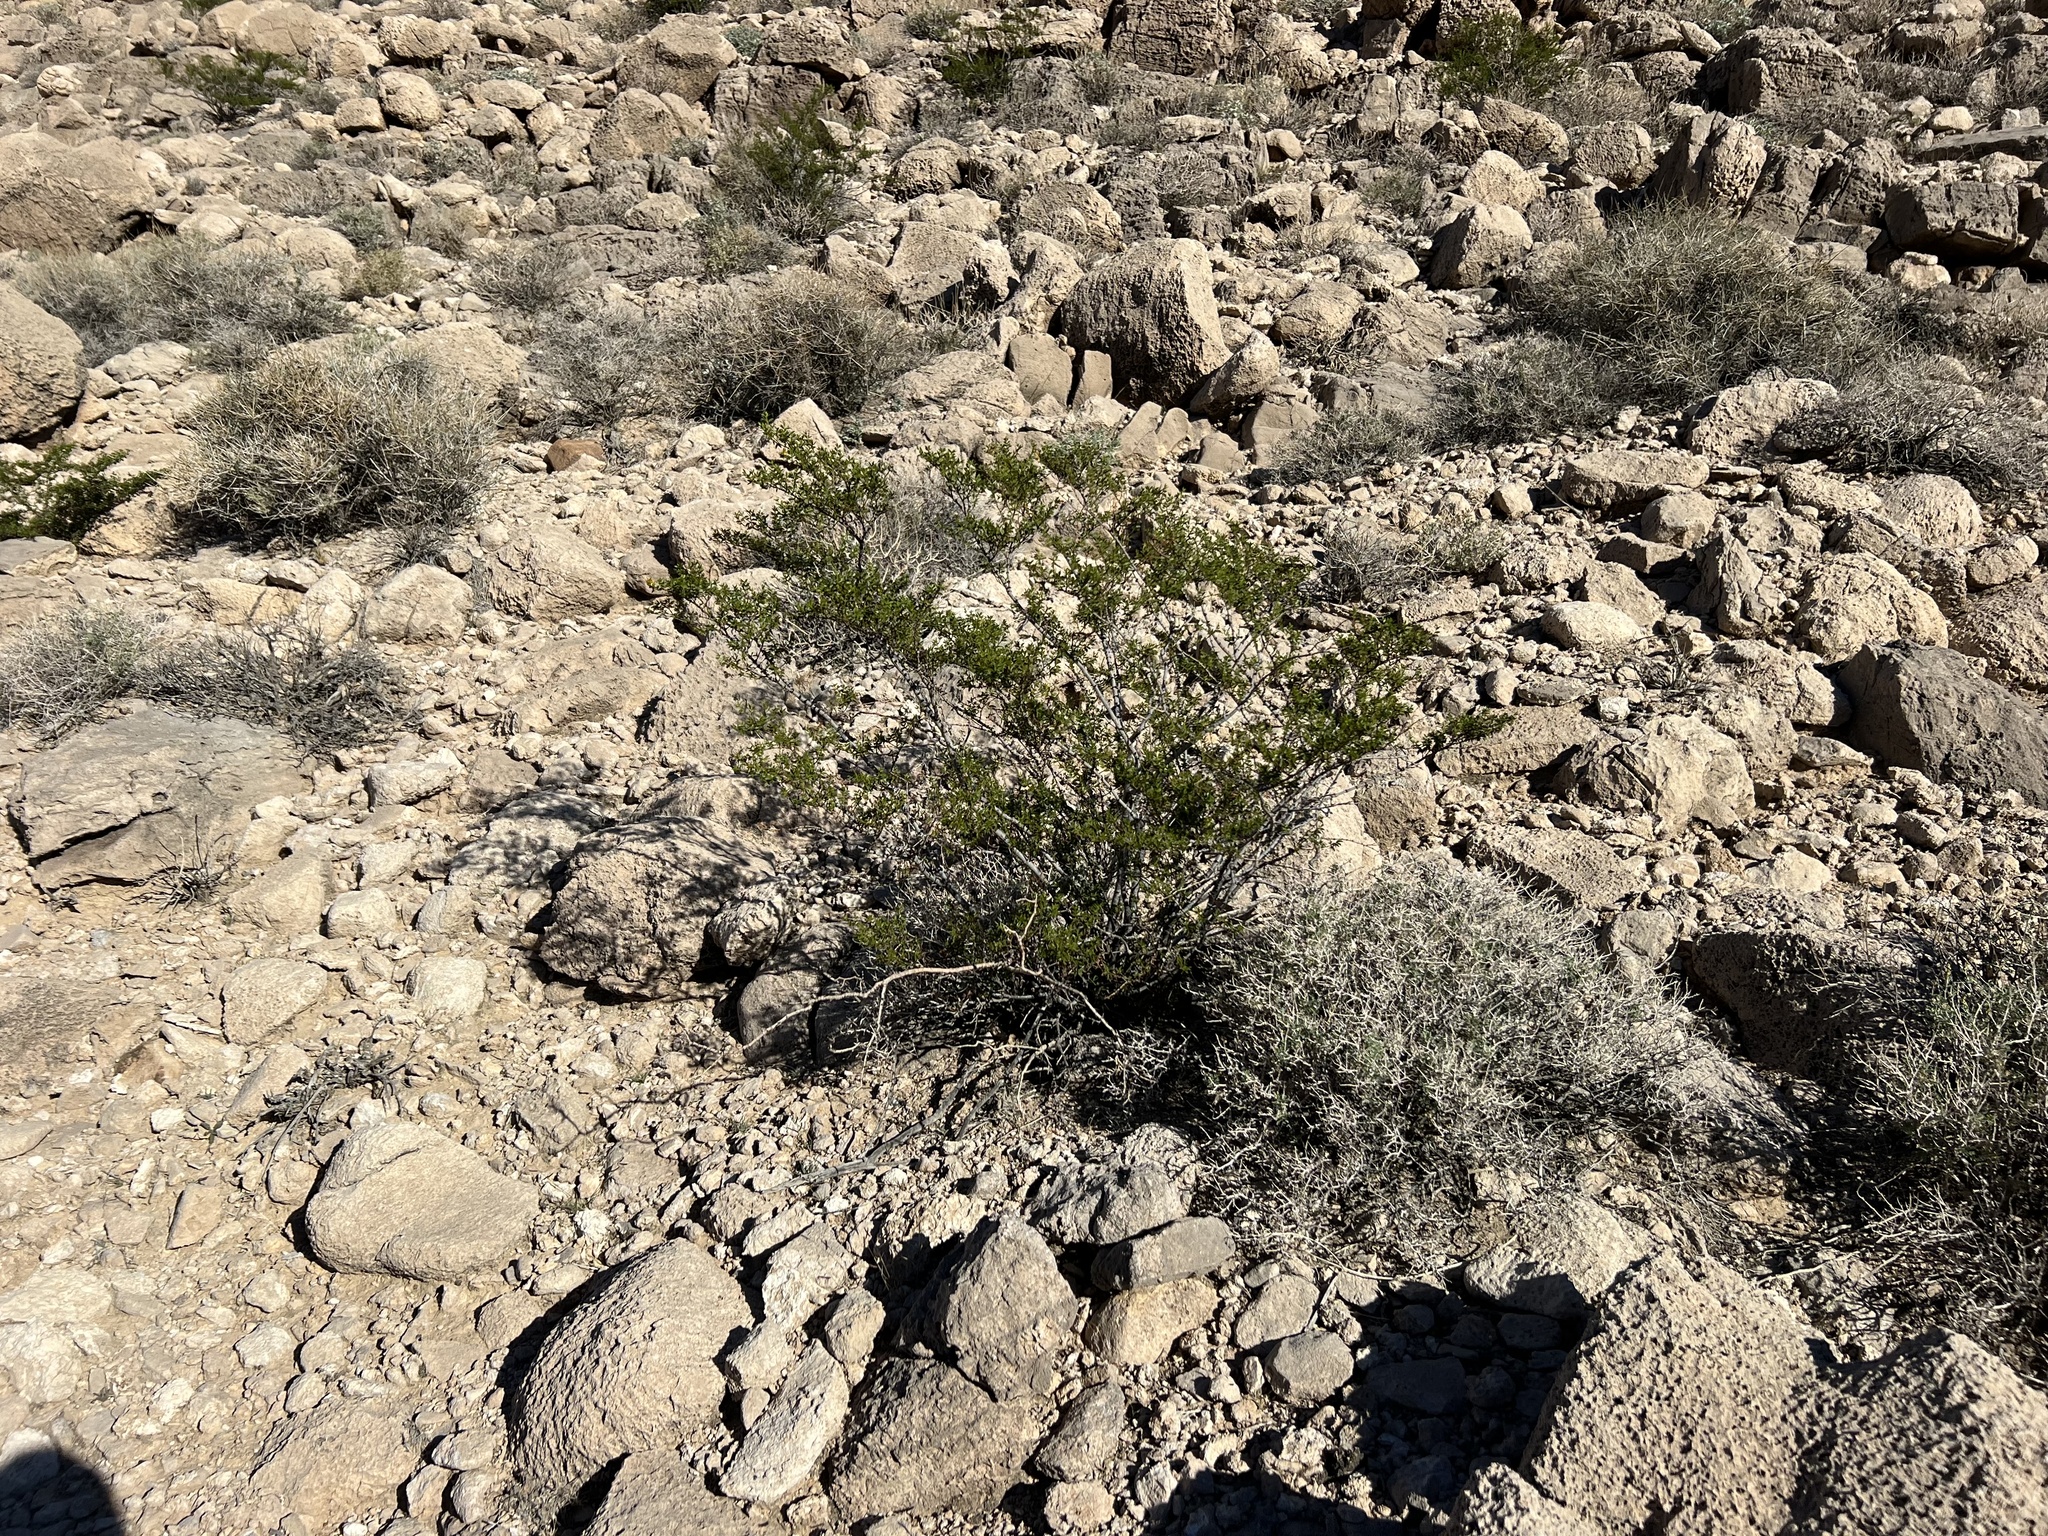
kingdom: Plantae
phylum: Tracheophyta
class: Magnoliopsida
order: Zygophyllales
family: Zygophyllaceae
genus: Larrea
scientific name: Larrea tridentata
